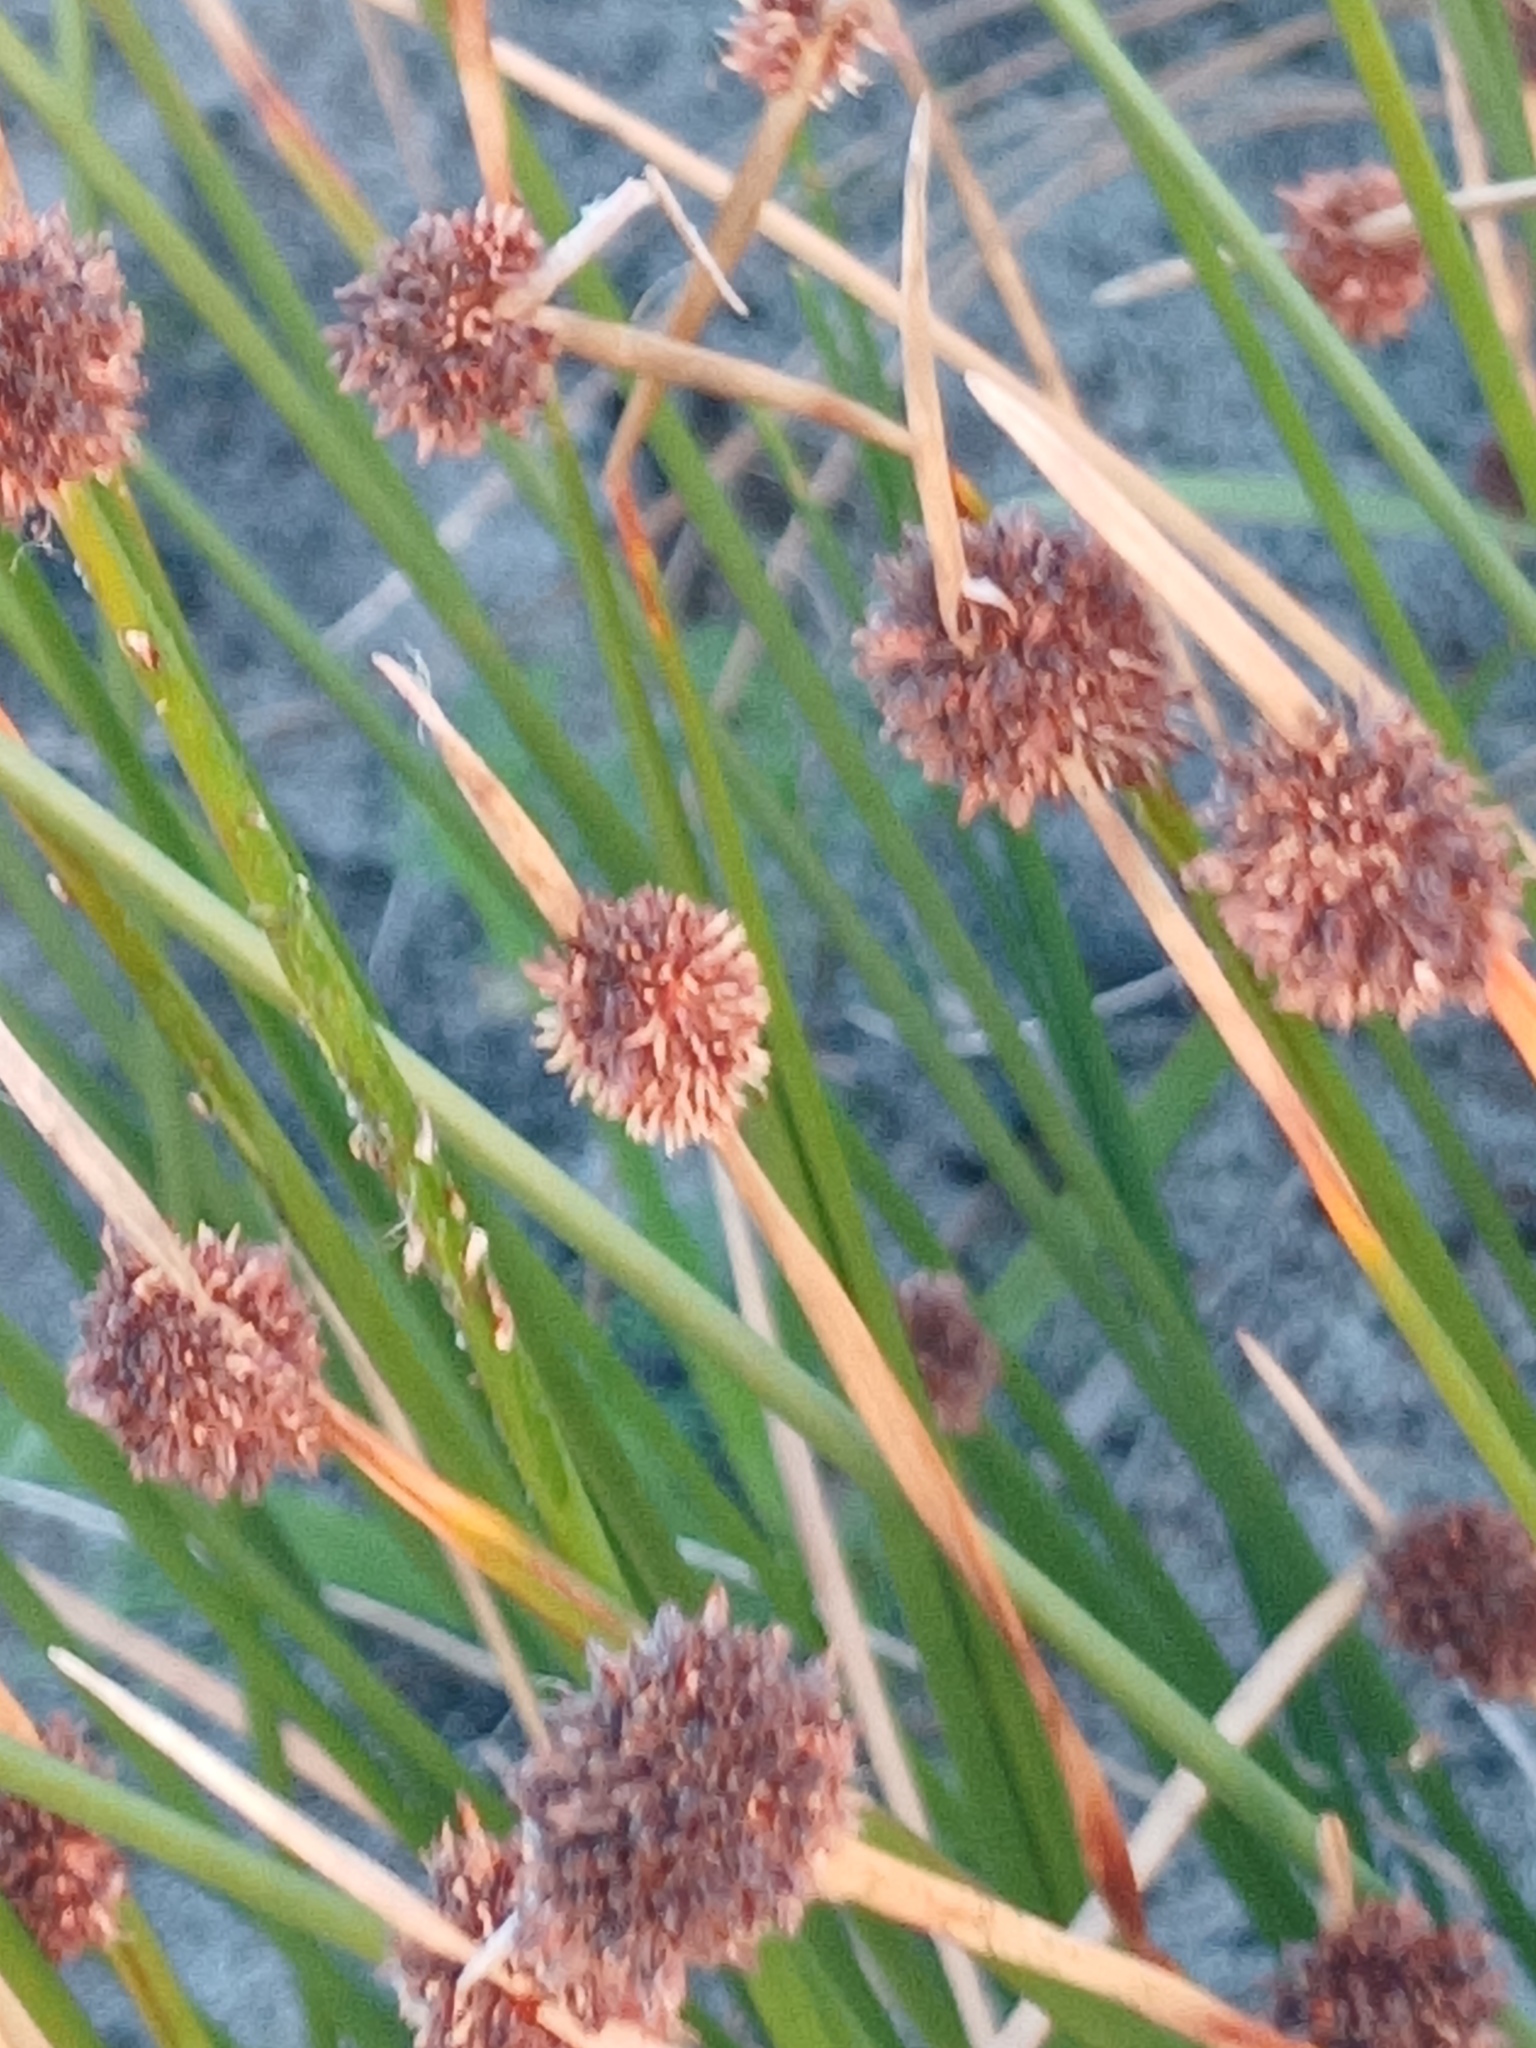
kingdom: Plantae
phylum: Tracheophyta
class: Liliopsida
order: Poales
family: Cyperaceae
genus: Ficinia
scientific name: Ficinia nodosa
